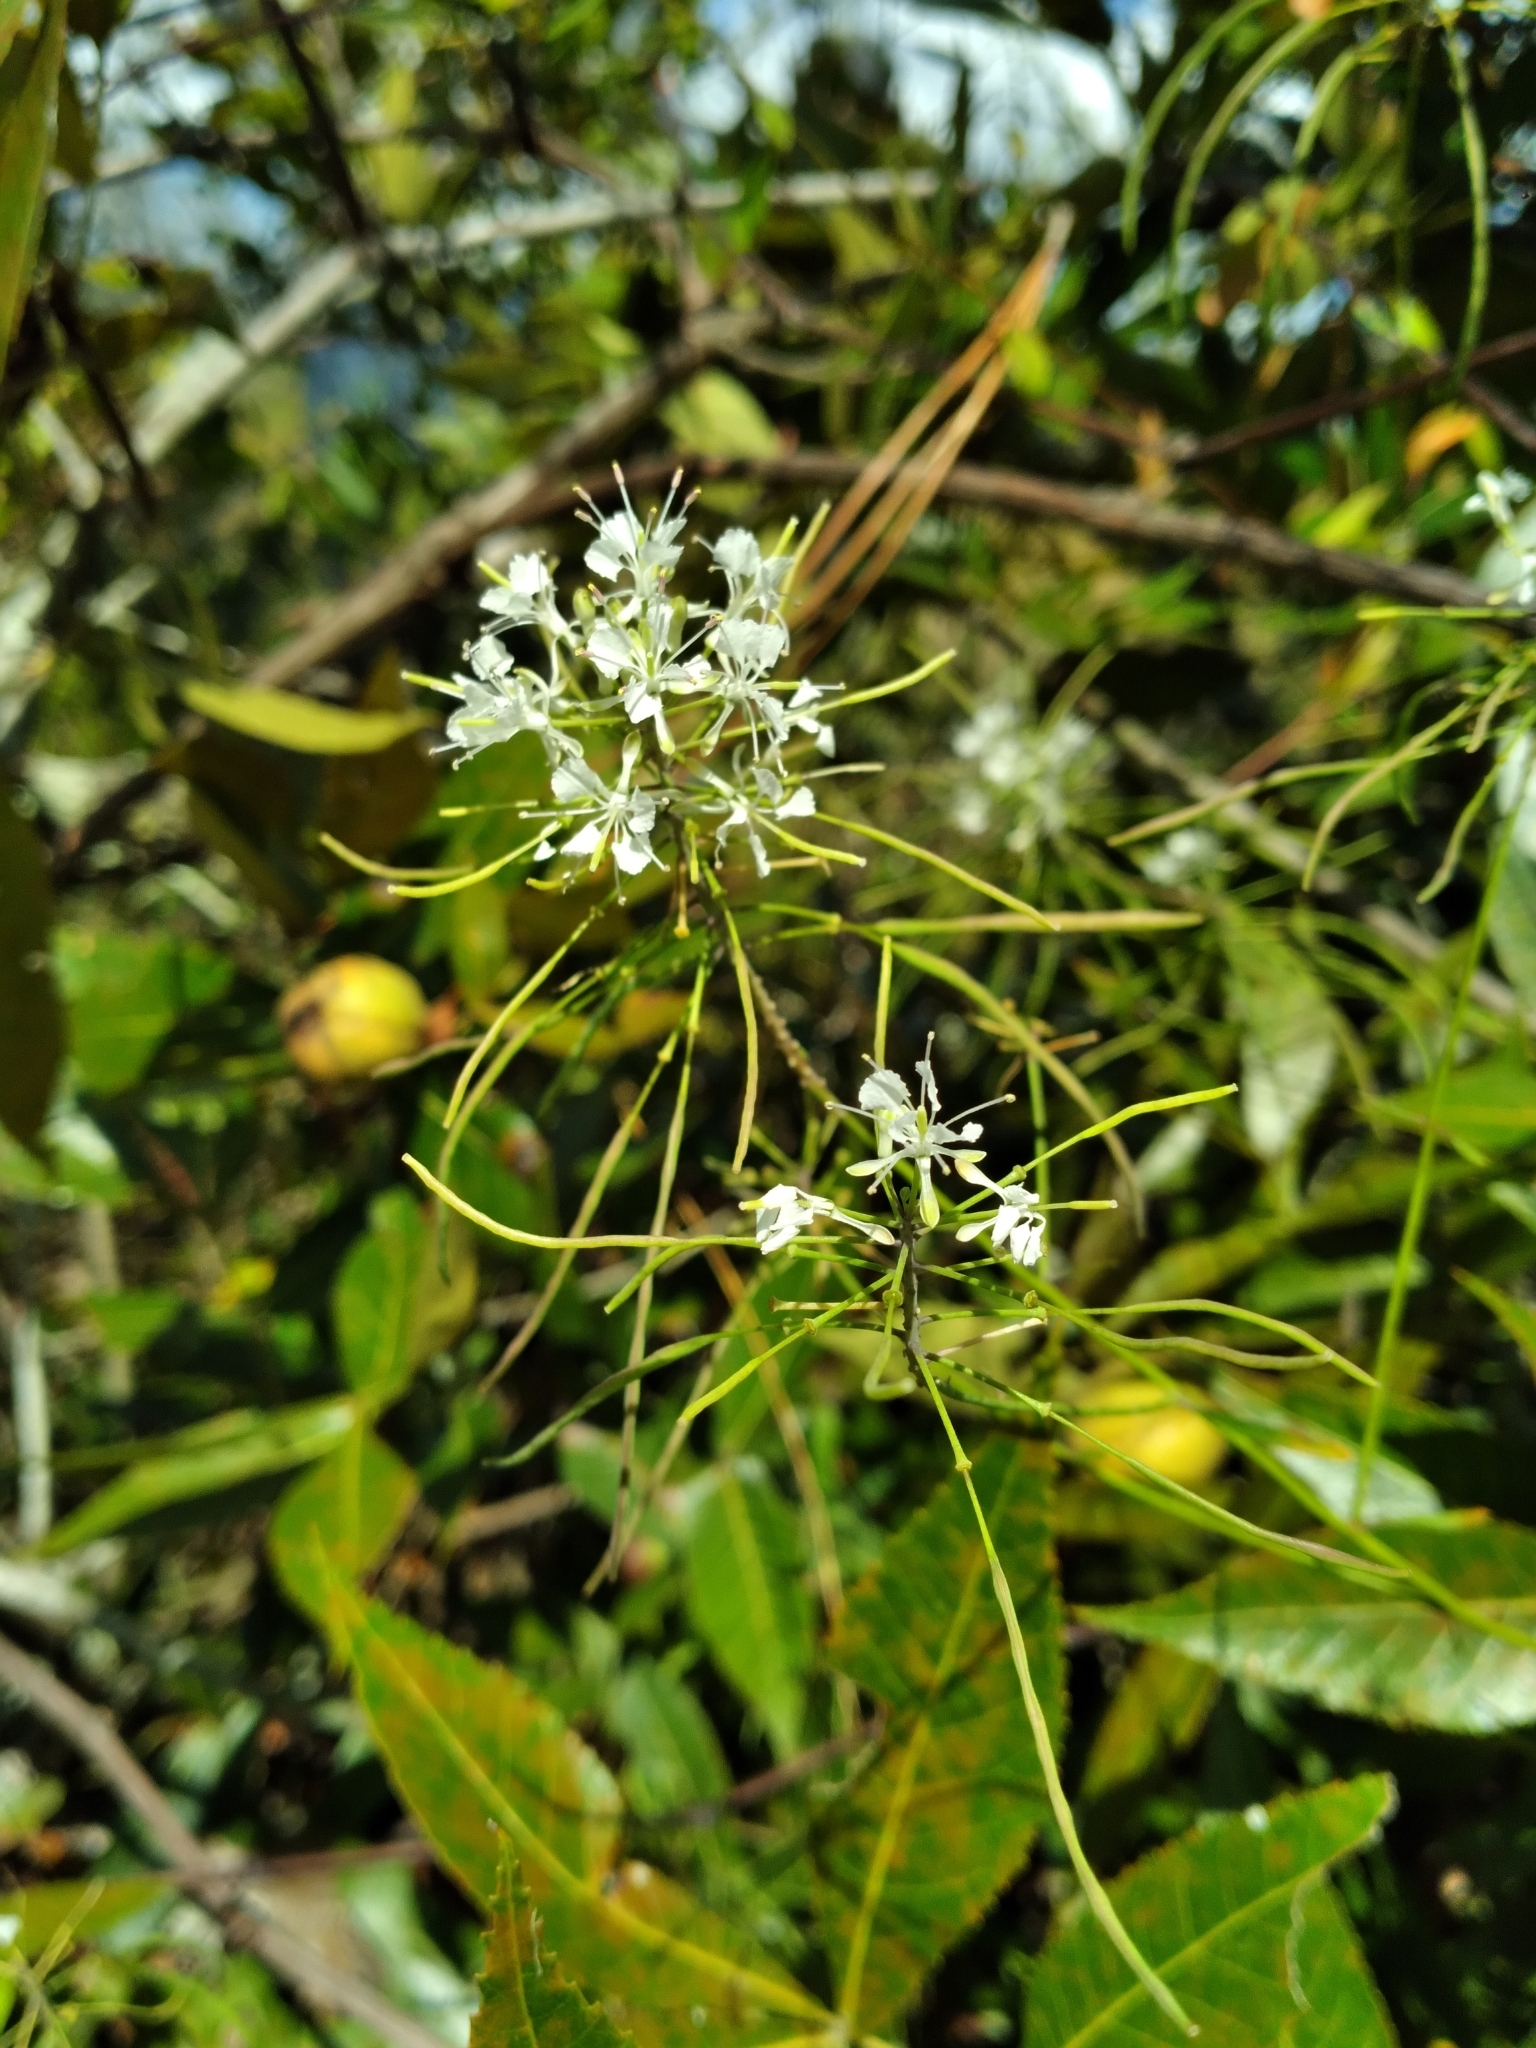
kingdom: Plantae
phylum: Tracheophyta
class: Magnoliopsida
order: Brassicales
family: Brassicaceae
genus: Warea
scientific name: Warea carteri
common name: Carter's mustard
